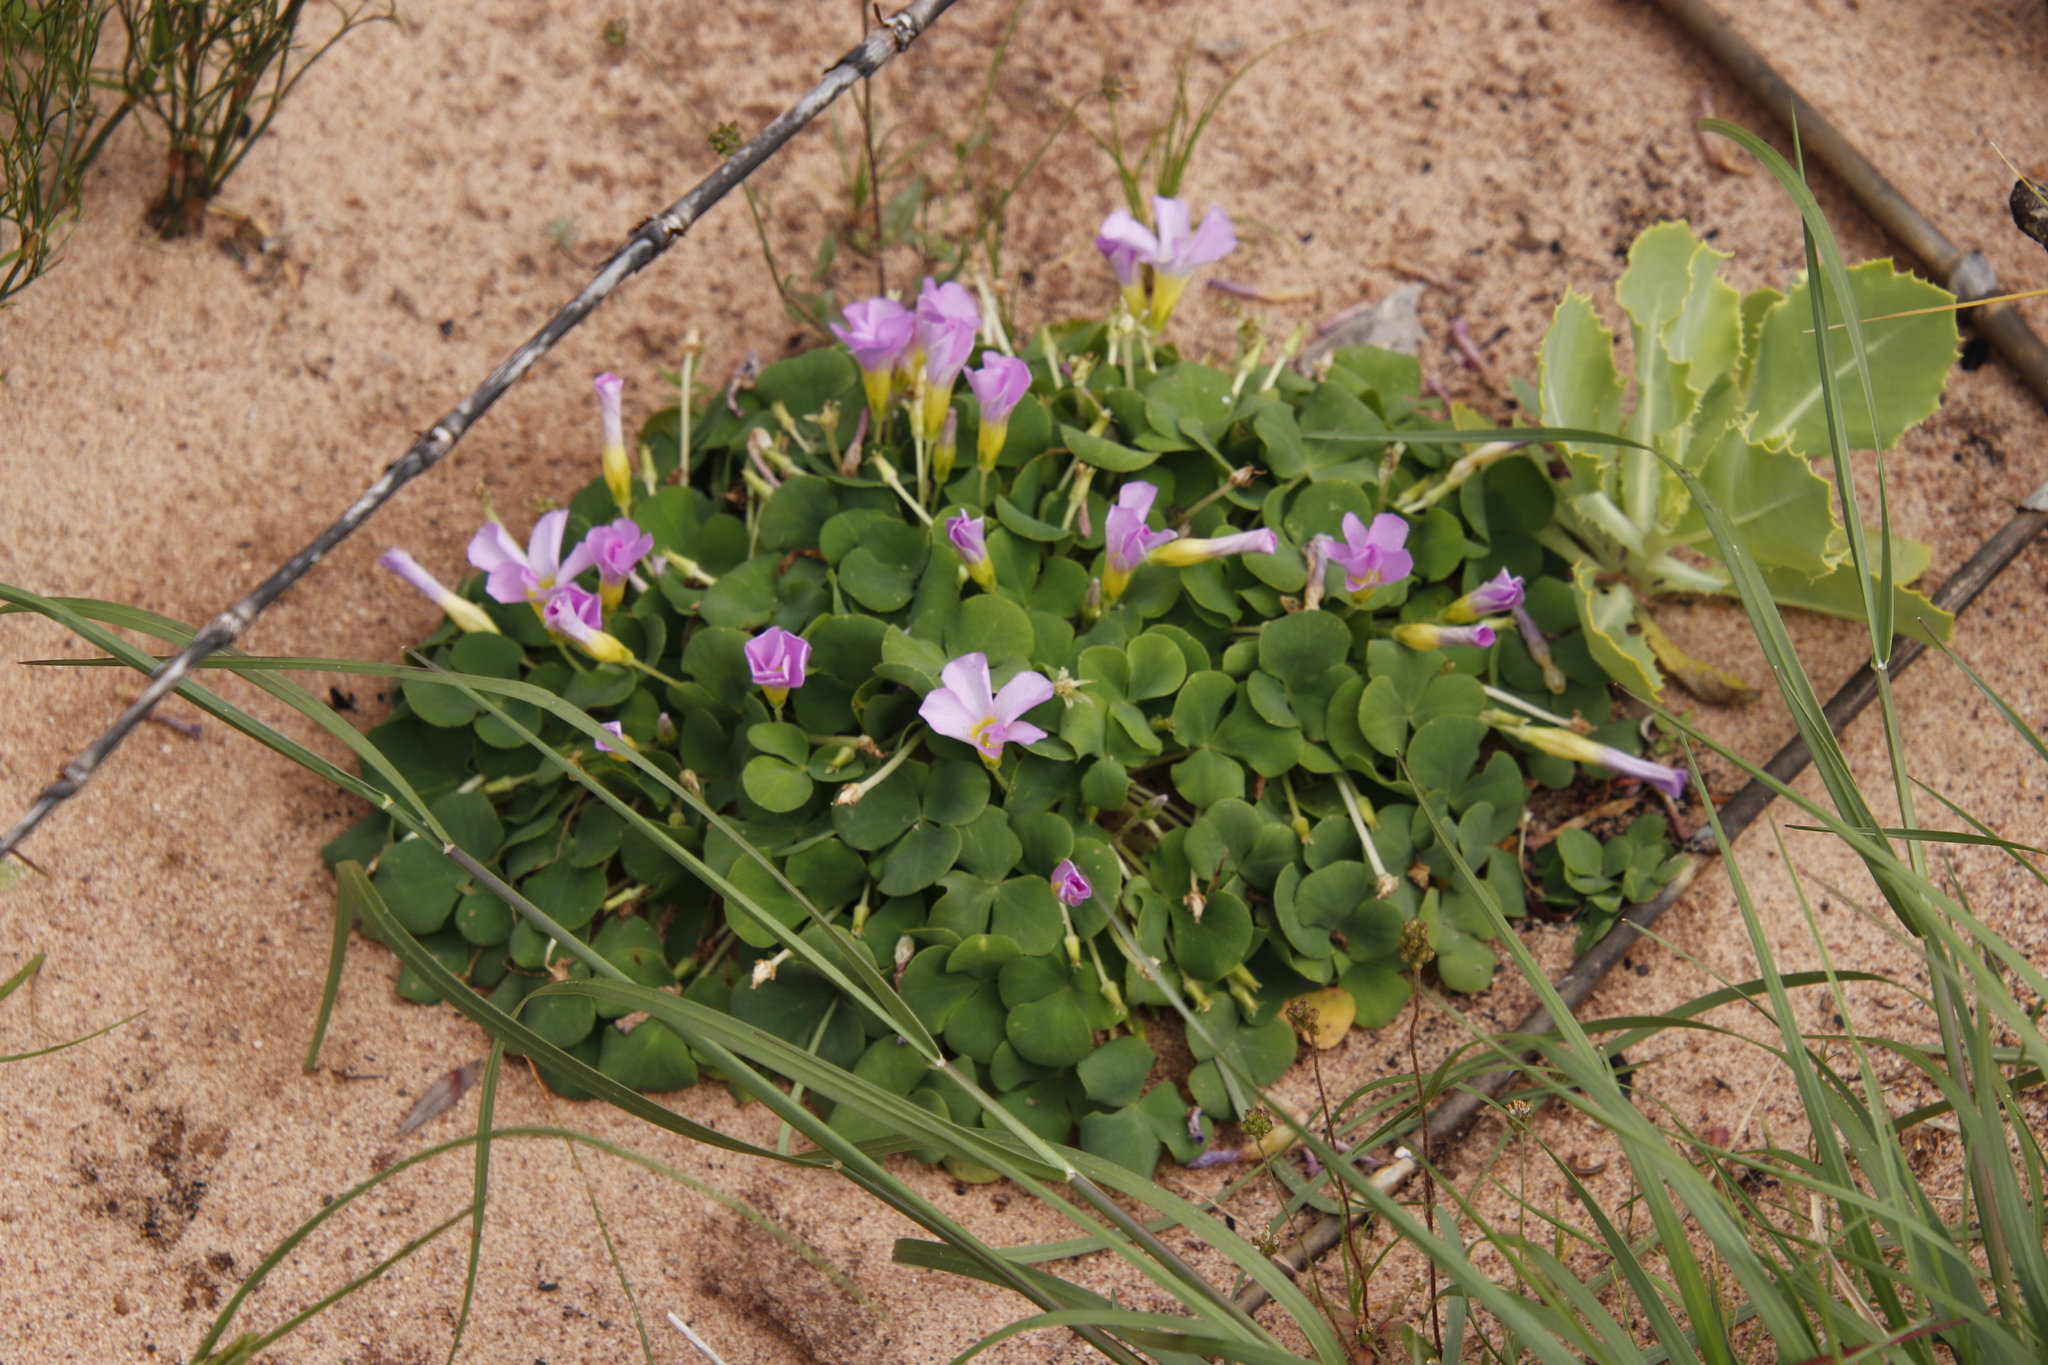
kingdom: Plantae
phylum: Tracheophyta
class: Magnoliopsida
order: Oxalidales
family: Oxalidaceae
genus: Oxalis
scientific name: Oxalis purpurea
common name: Purple woodsorrel
